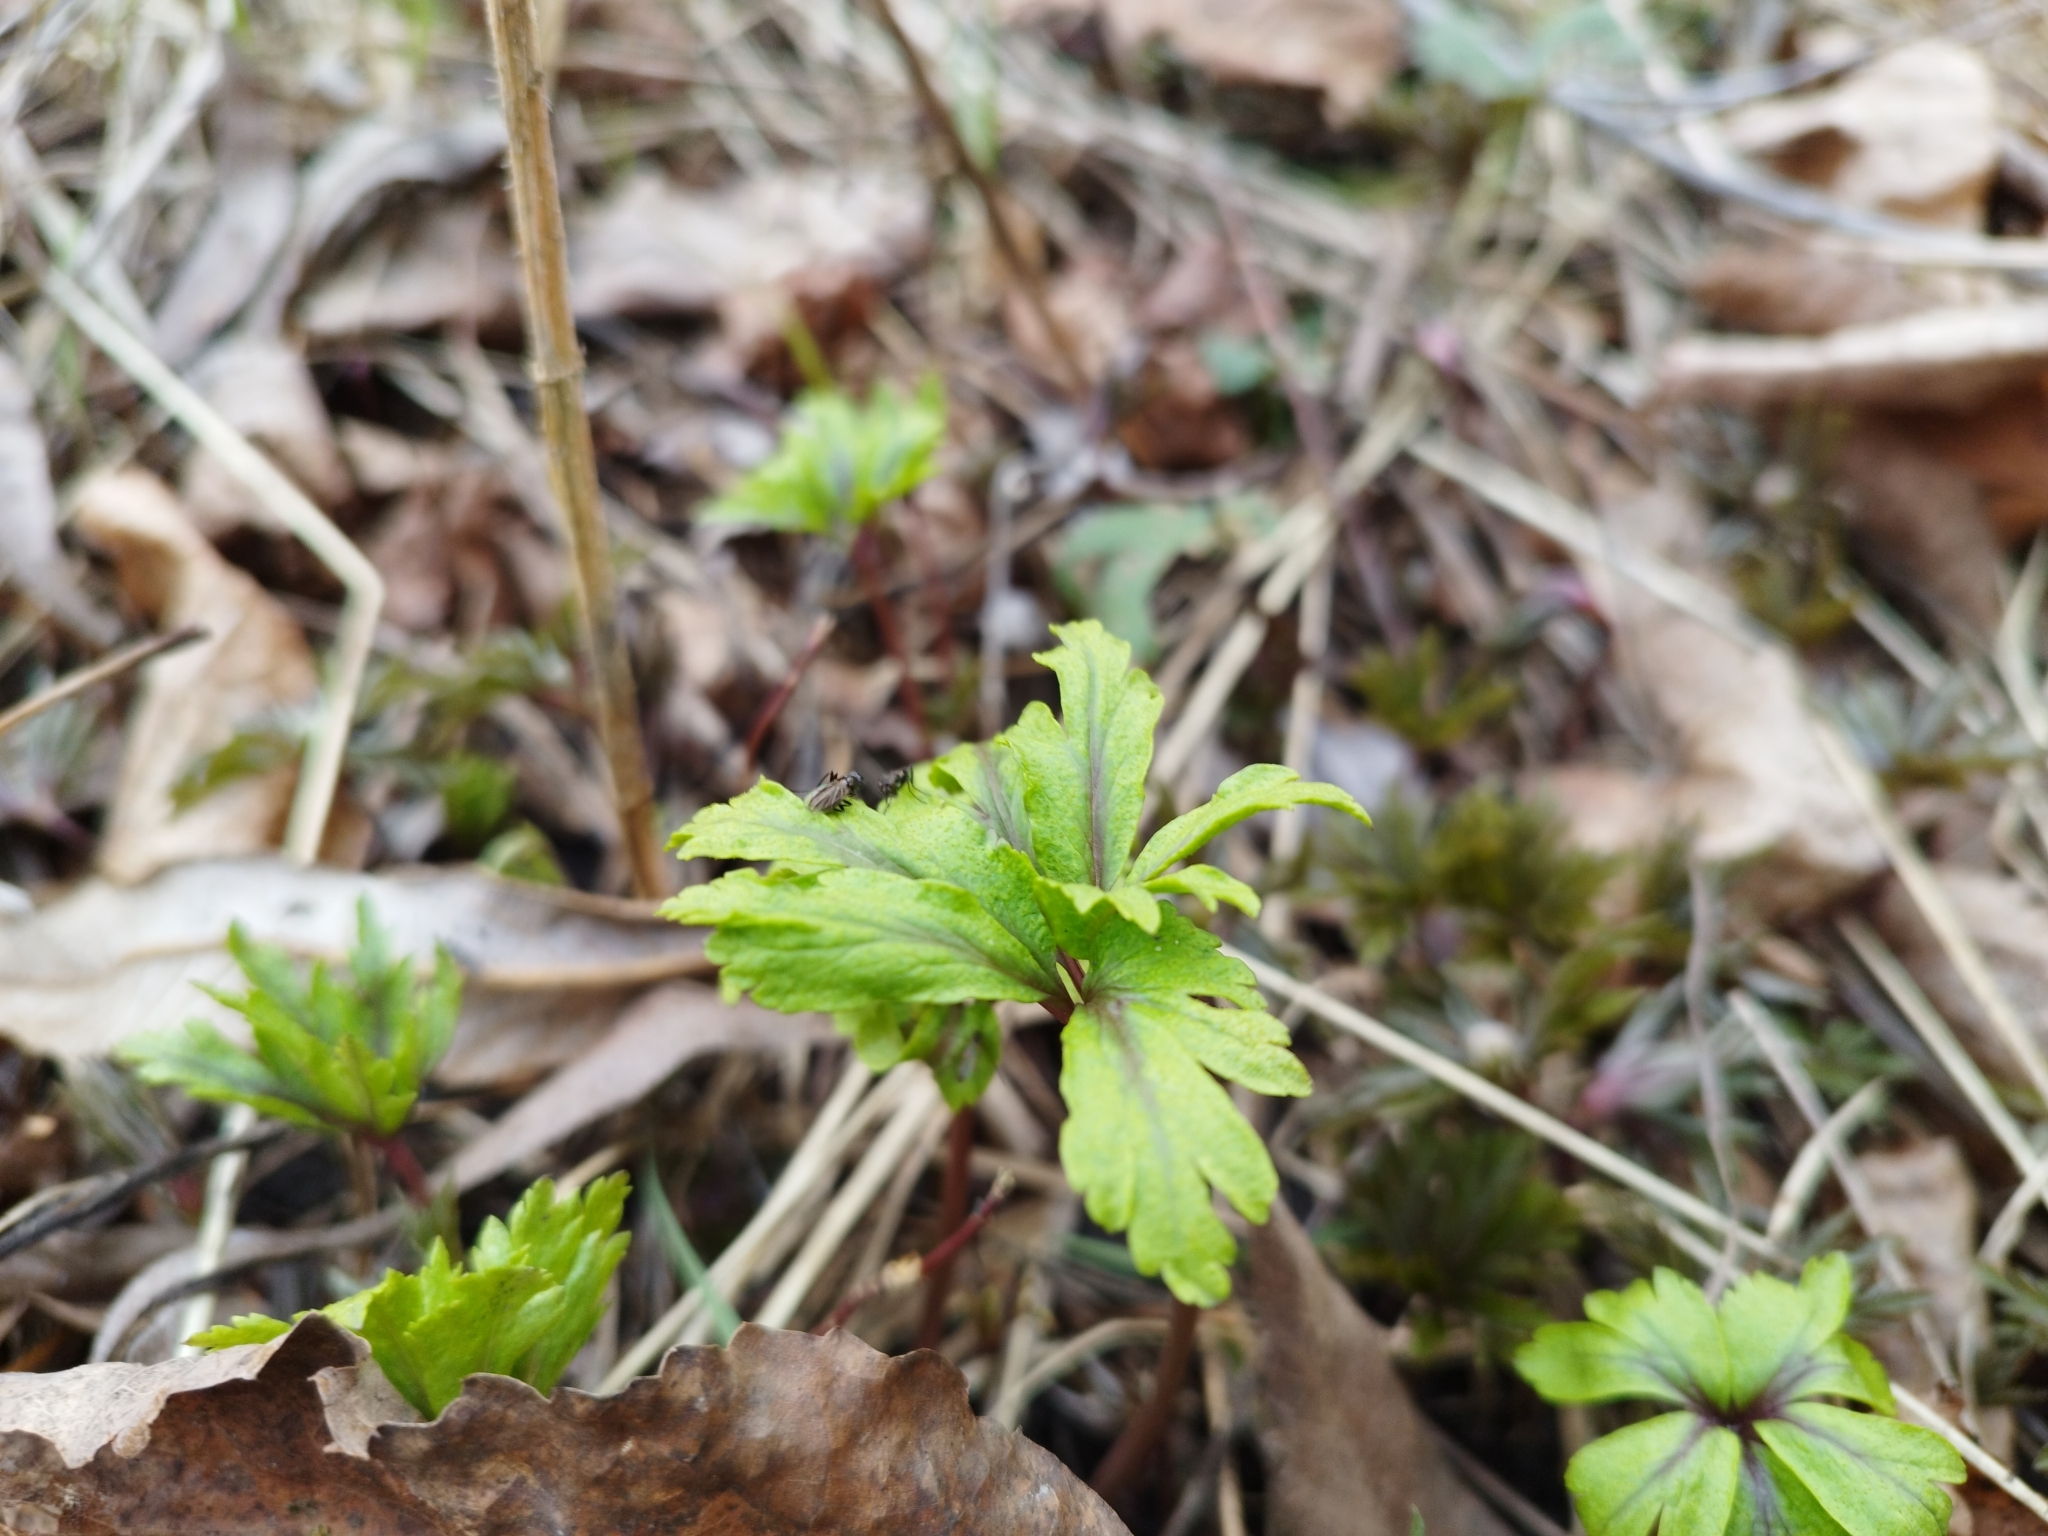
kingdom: Plantae
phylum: Tracheophyta
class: Magnoliopsida
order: Ranunculales
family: Ranunculaceae
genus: Anemone
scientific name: Anemone ranunculoides
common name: Yellow anemone
